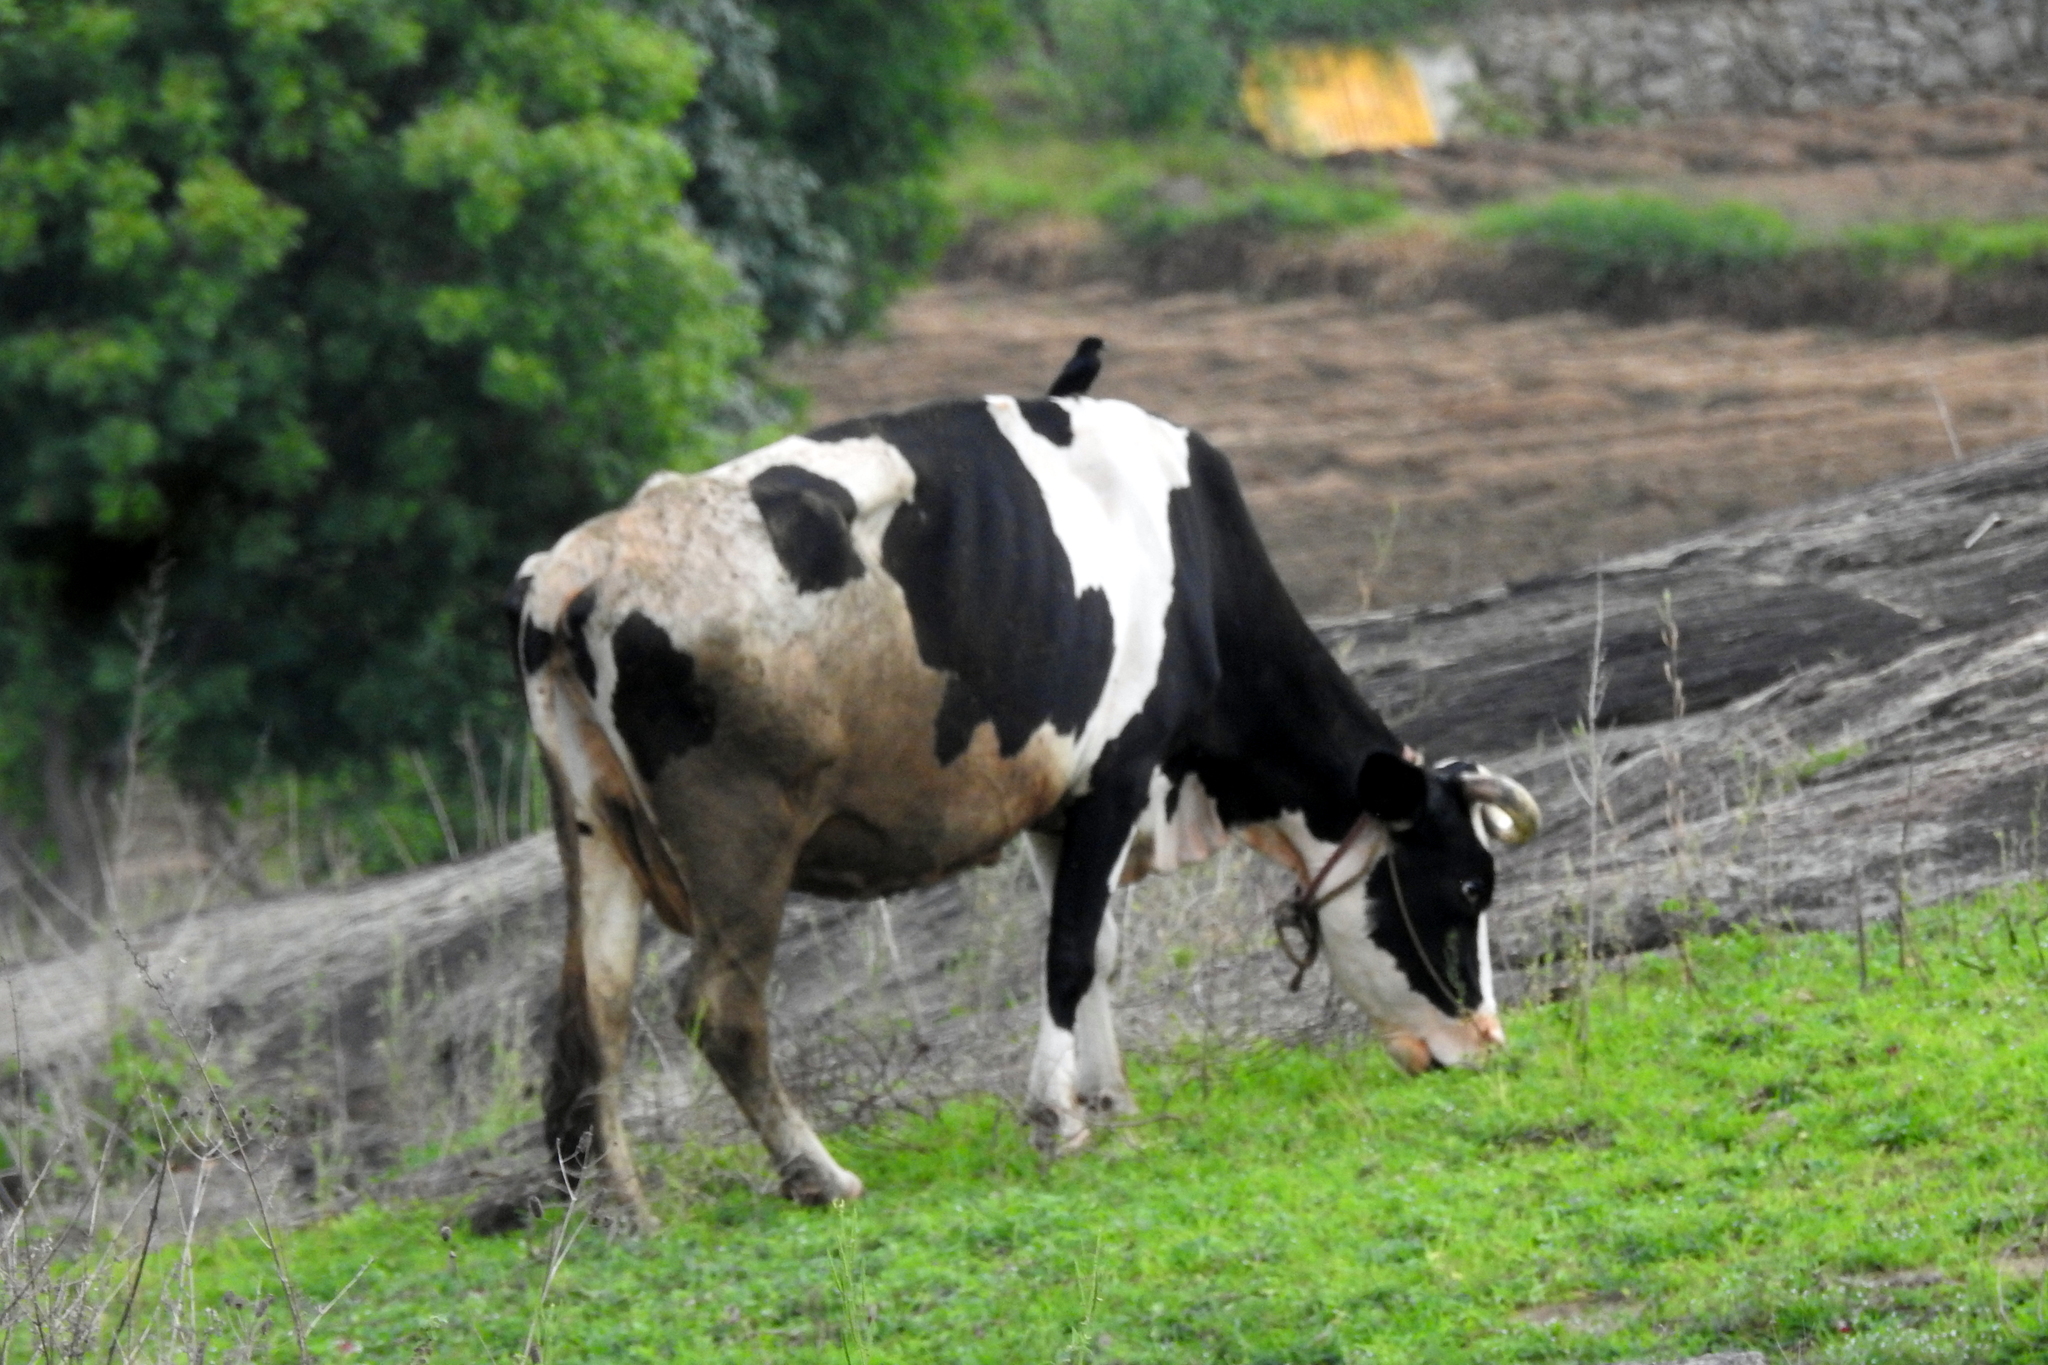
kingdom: Animalia
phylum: Chordata
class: Aves
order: Passeriformes
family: Dicruridae
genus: Dicrurus
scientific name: Dicrurus macrocercus
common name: Black drongo
